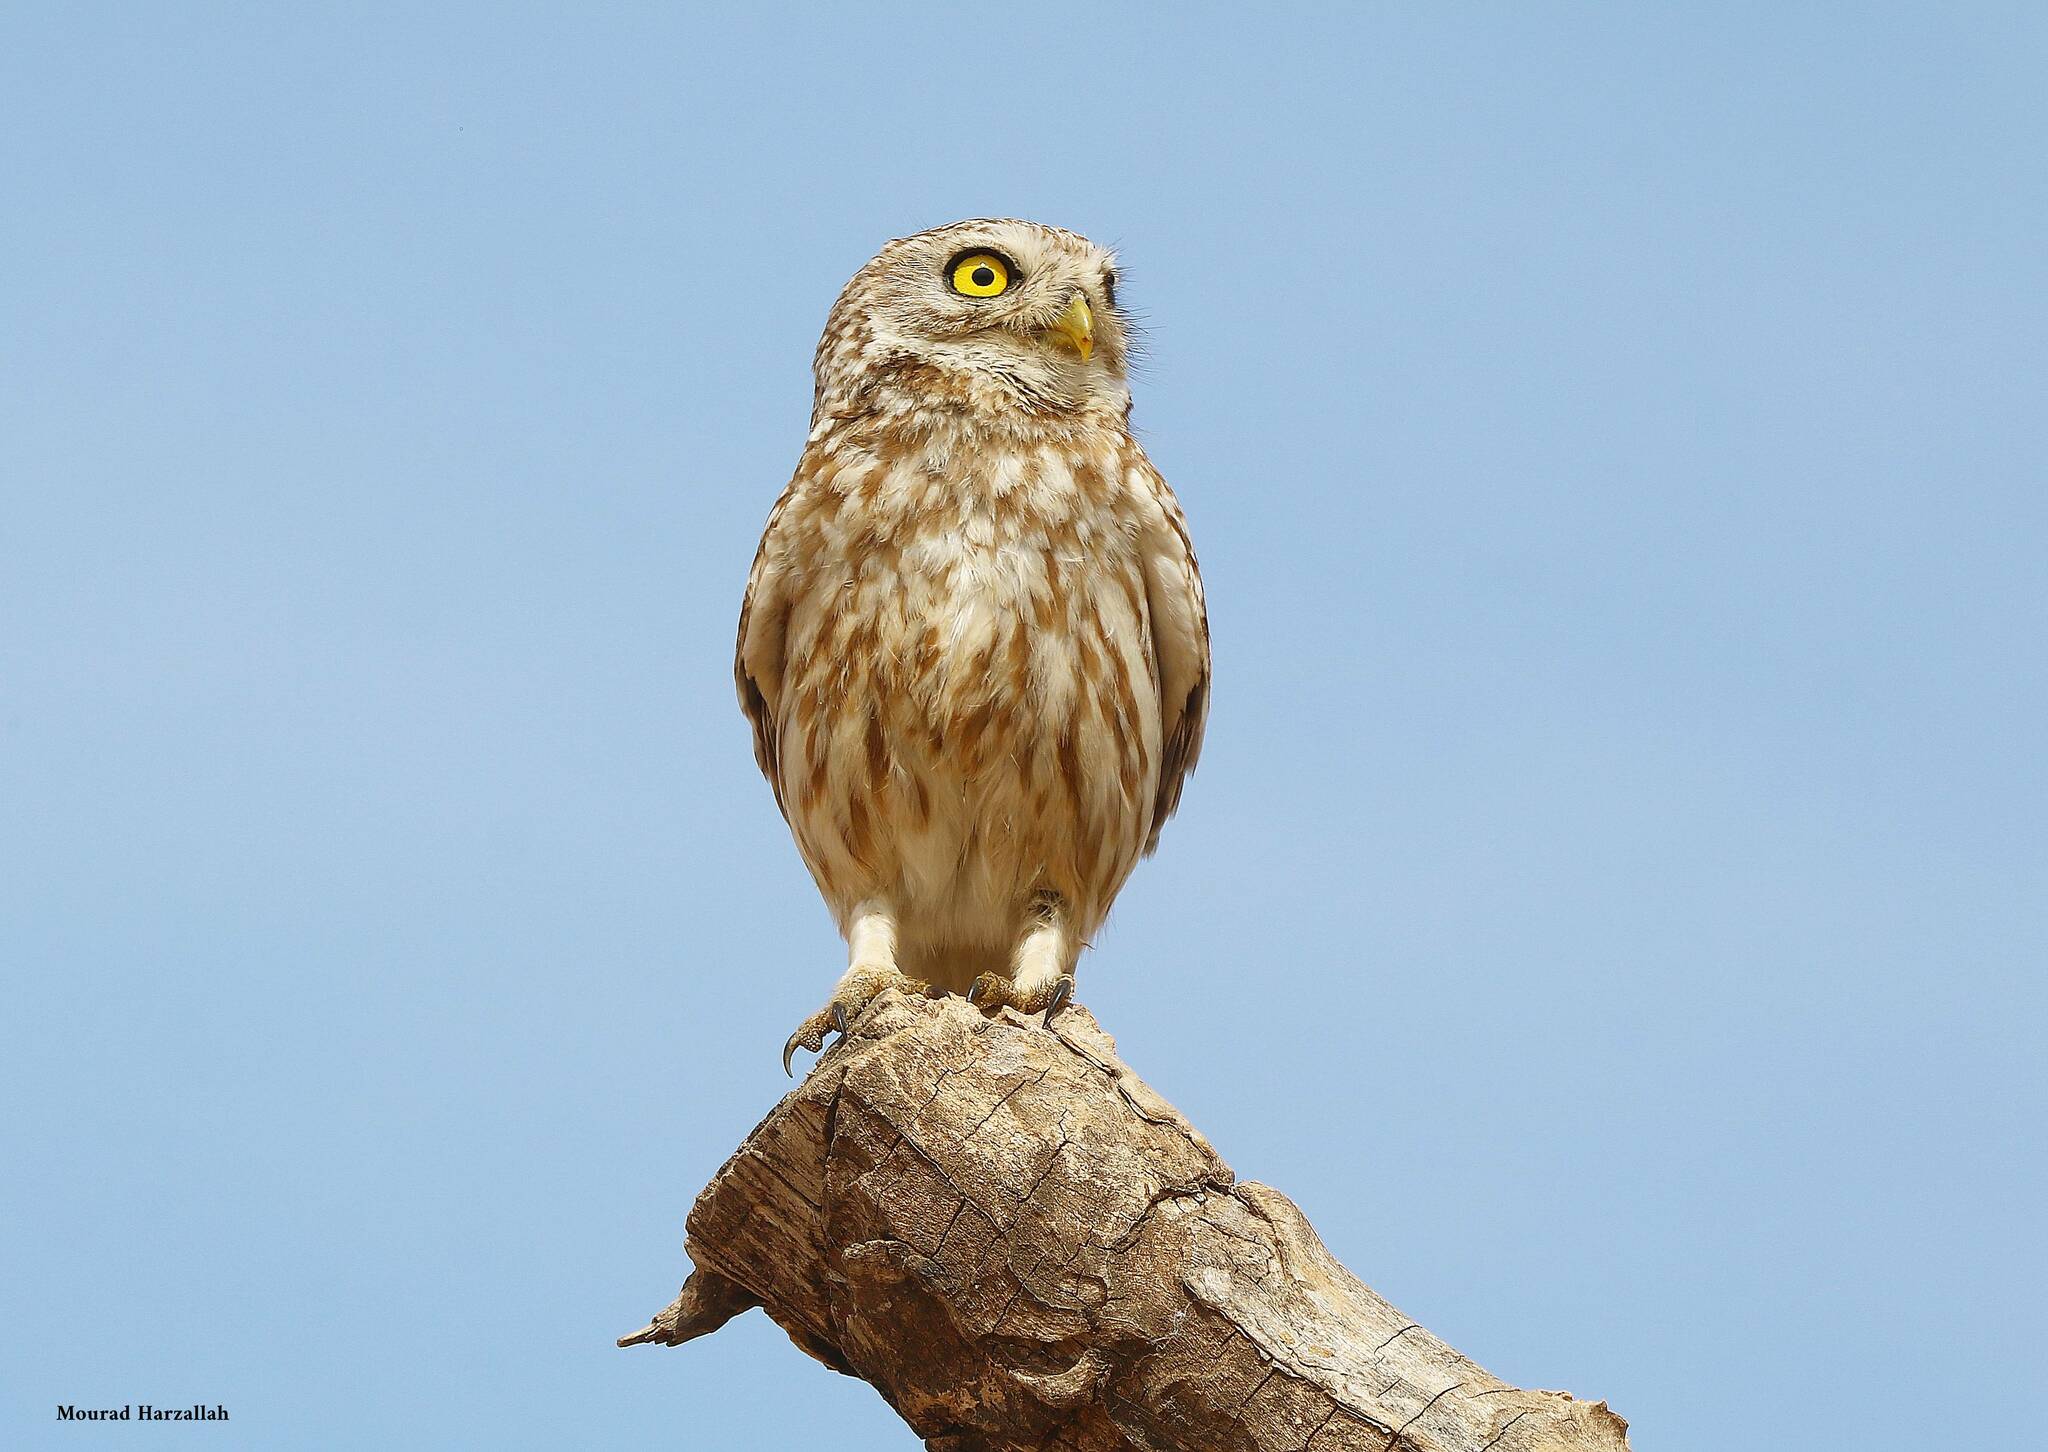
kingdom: Animalia
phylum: Chordata
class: Aves
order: Strigiformes
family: Strigidae
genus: Athene
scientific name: Athene noctua
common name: Little owl
